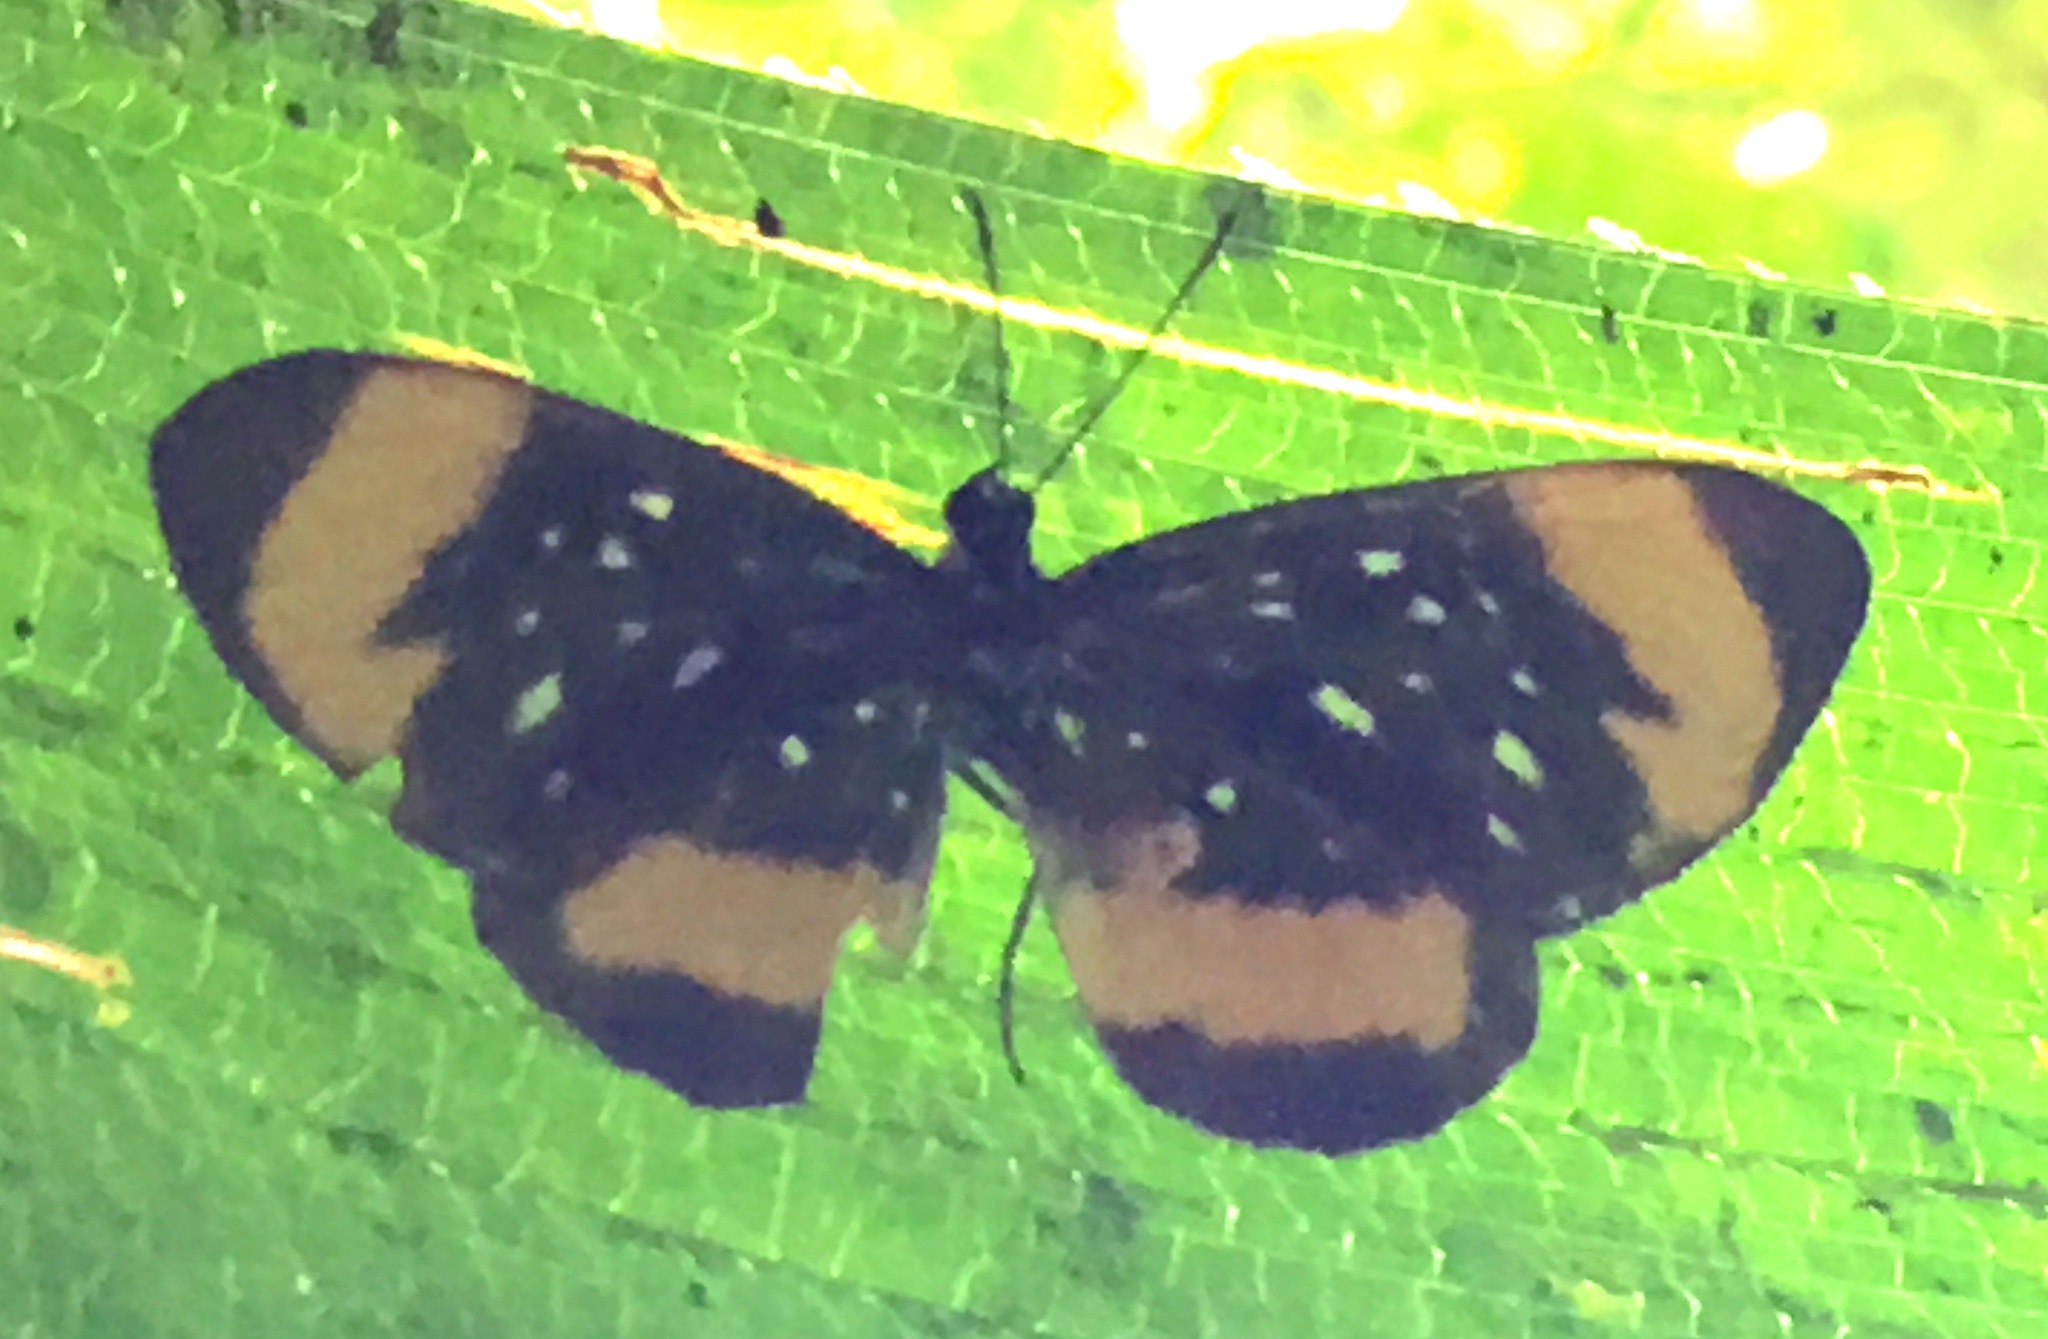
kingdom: Animalia
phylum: Arthropoda
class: Insecta
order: Lepidoptera
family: Riodinidae
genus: Stalachtis
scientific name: Stalachtis euterpe
